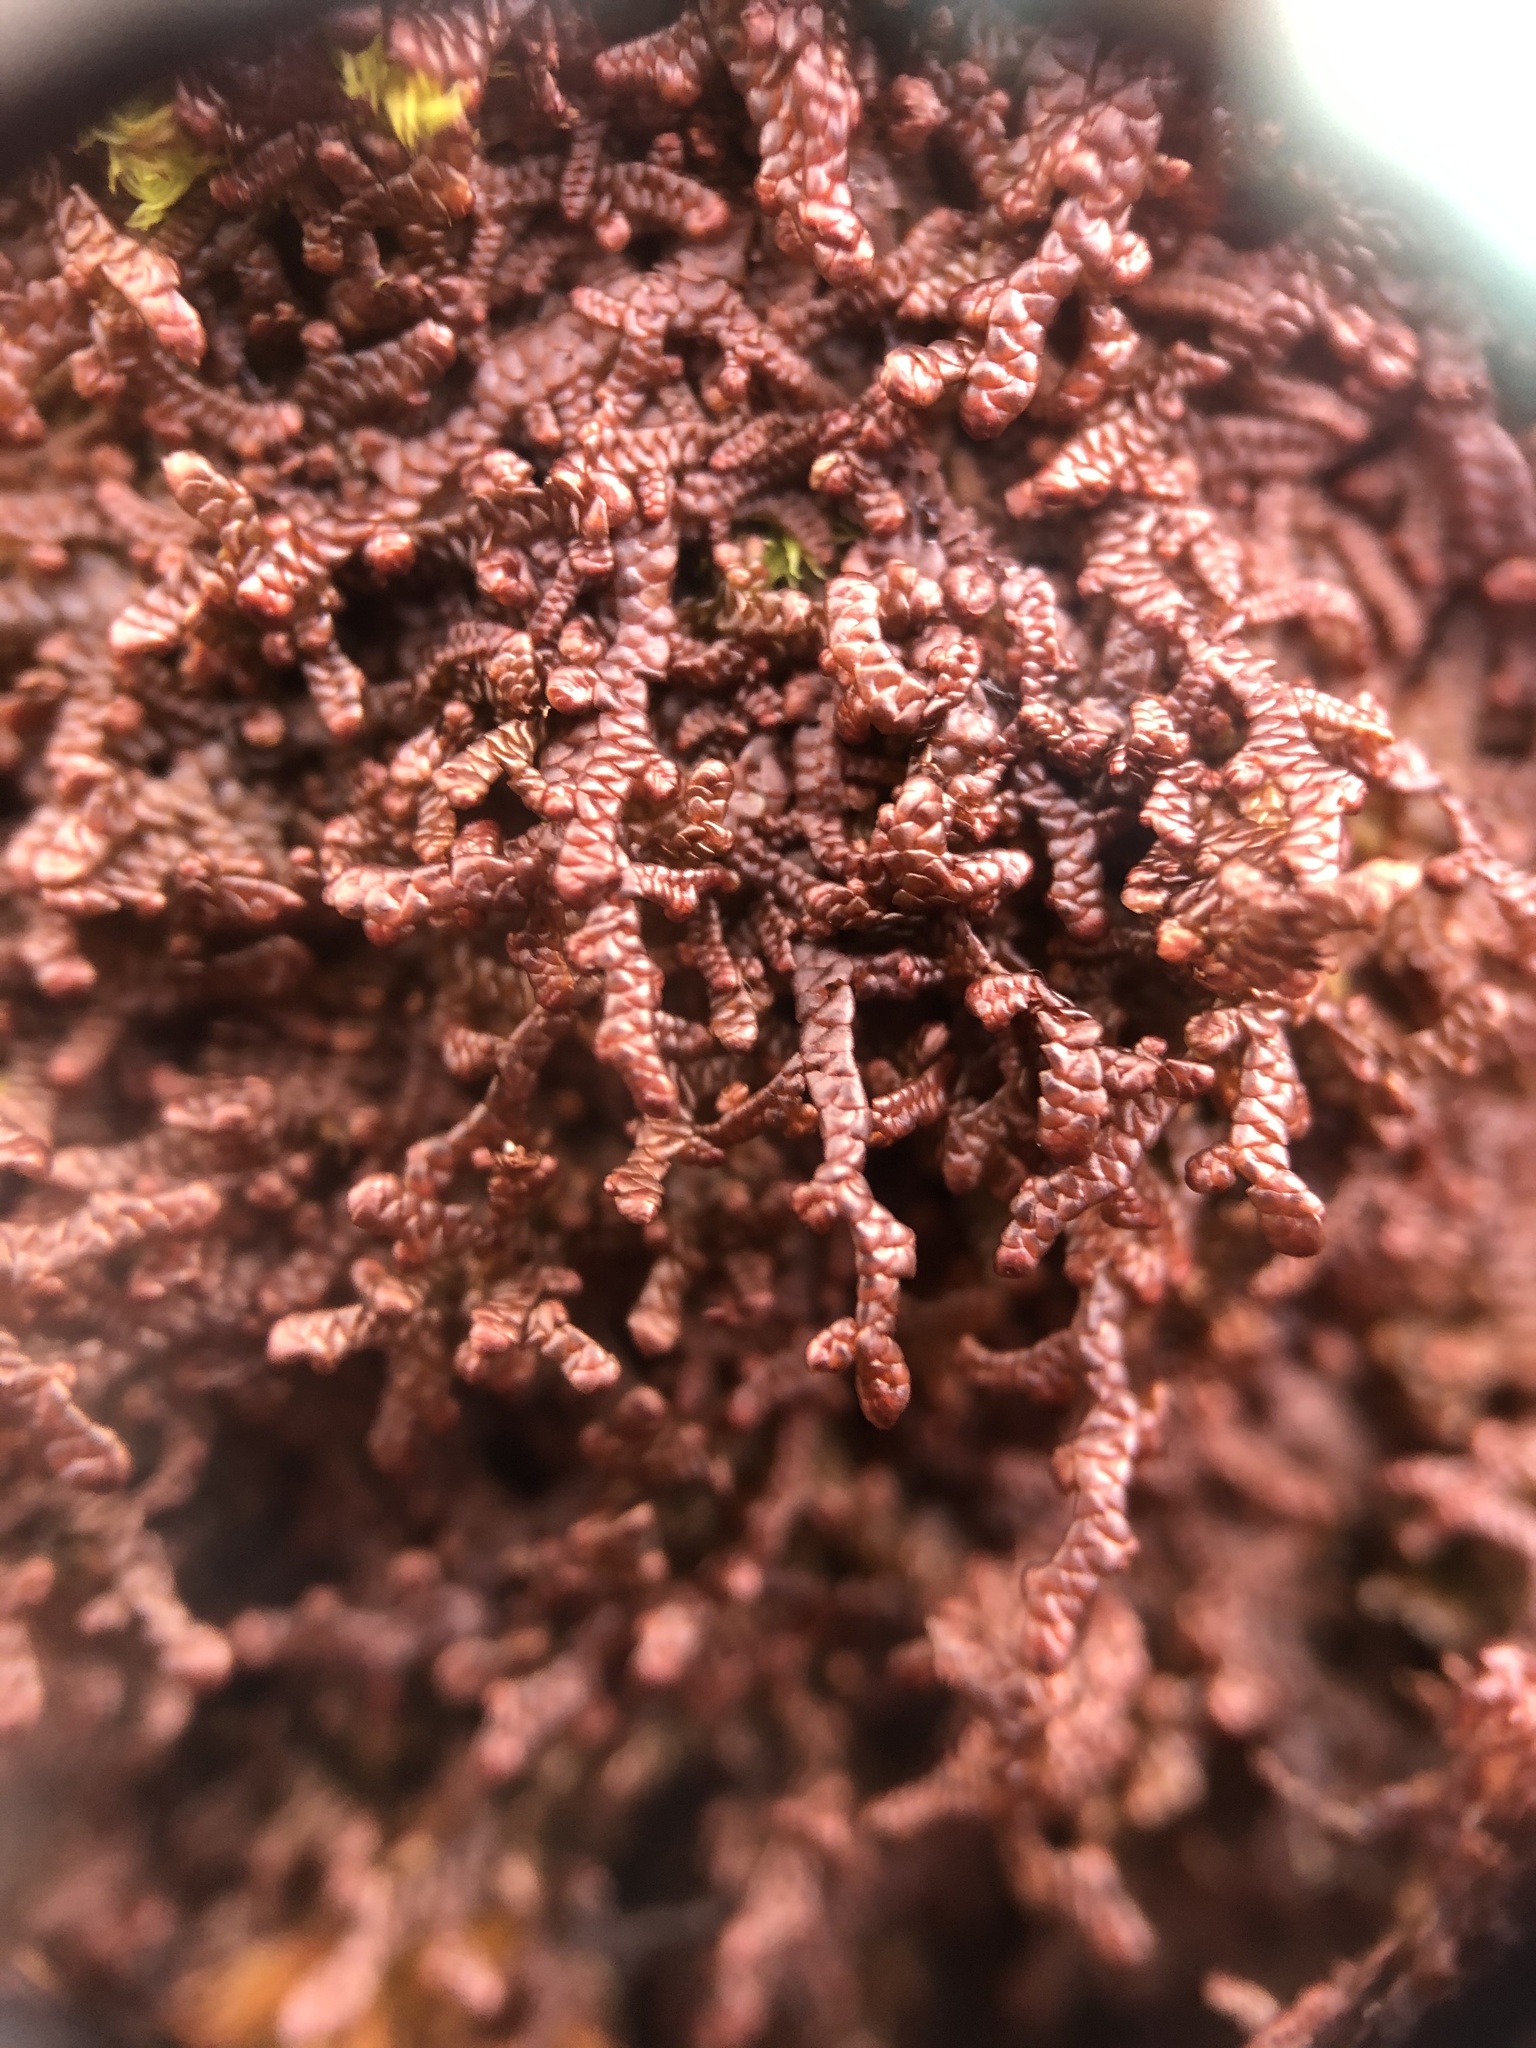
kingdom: Plantae
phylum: Marchantiophyta
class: Jungermanniopsida
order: Porellales
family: Frullaniaceae
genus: Frullania
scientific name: Frullania asagrayana
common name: Asa gray s scalewort
